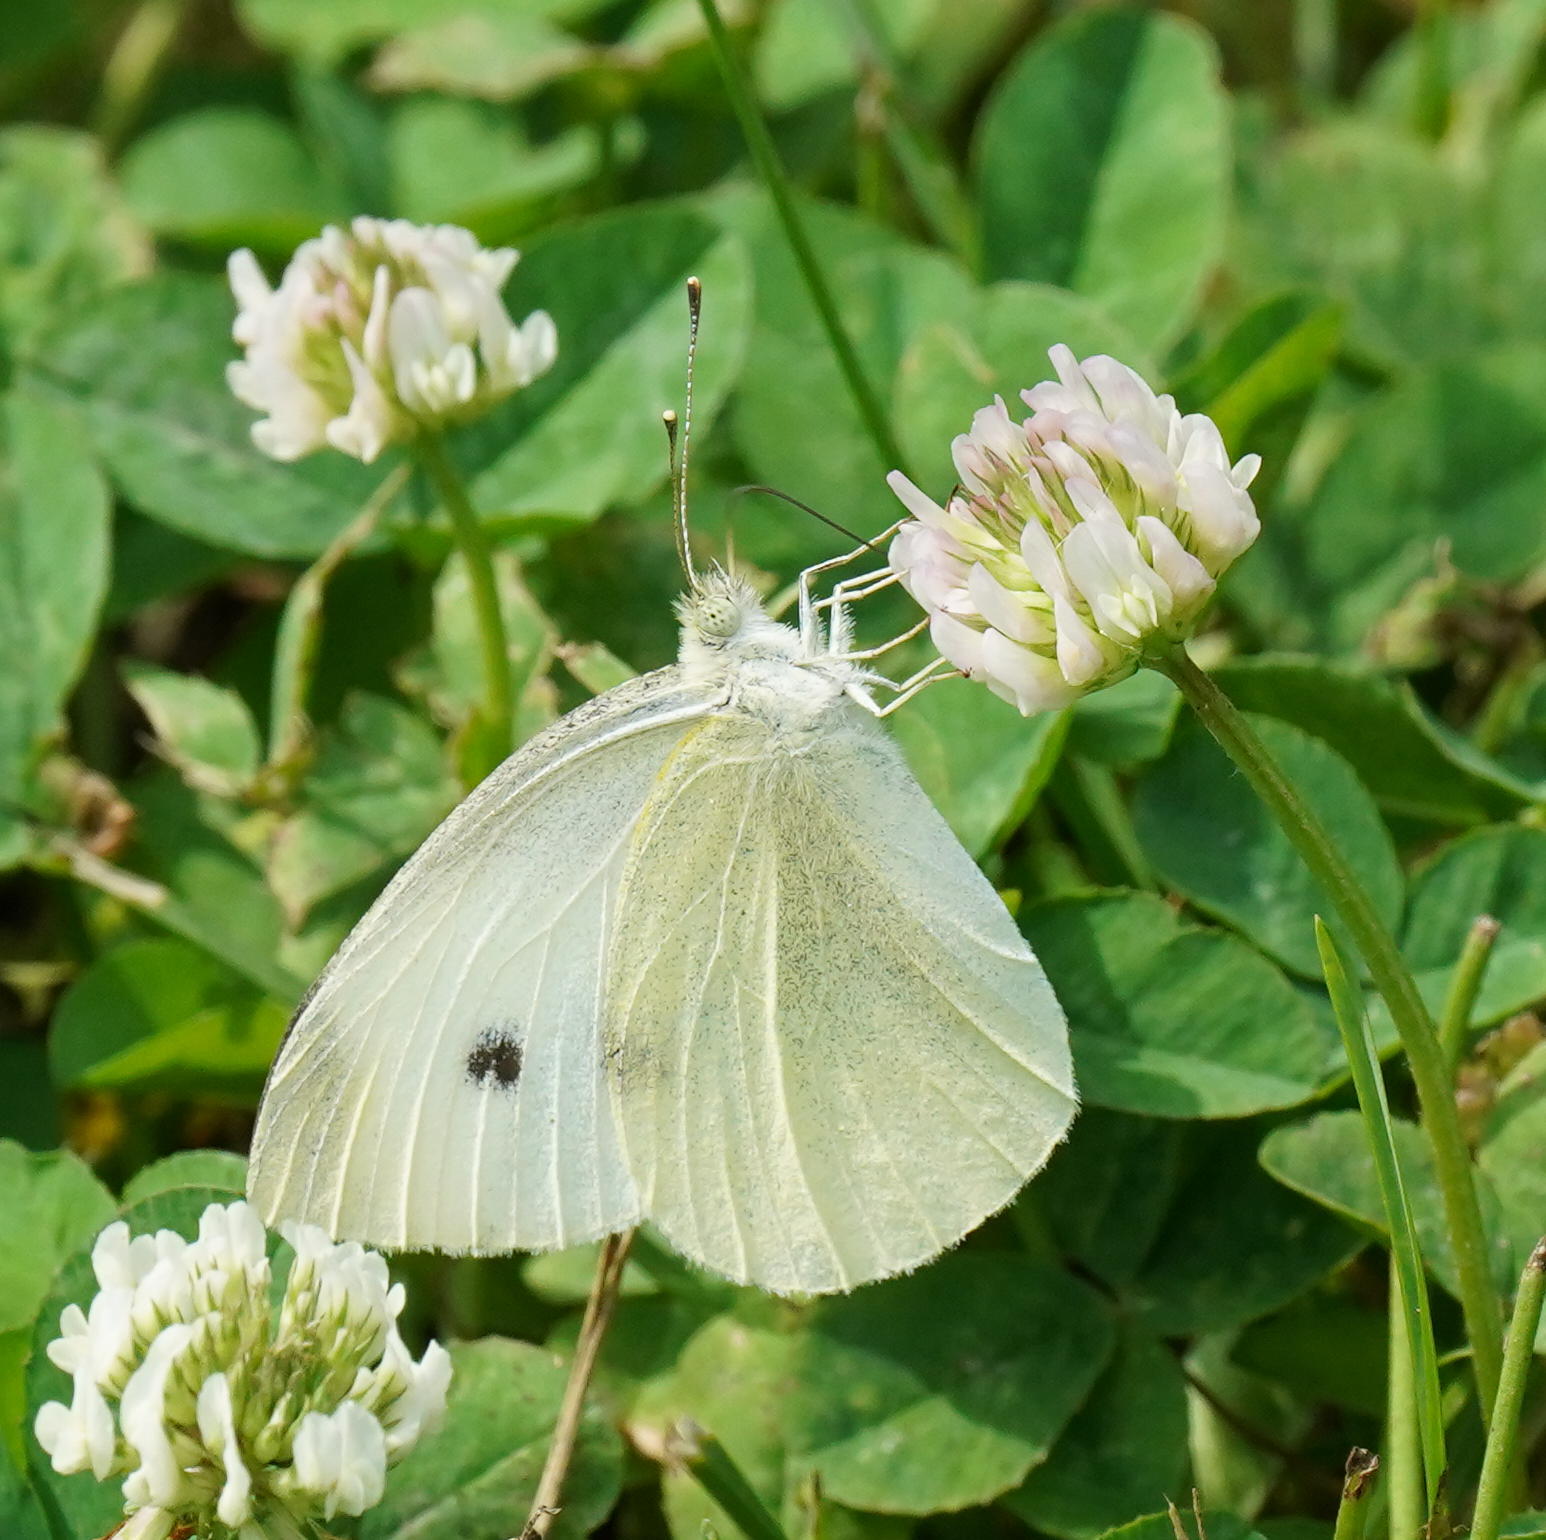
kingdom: Animalia
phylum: Arthropoda
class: Insecta
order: Lepidoptera
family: Pieridae
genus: Pieris
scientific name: Pieris rapae
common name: Small white
